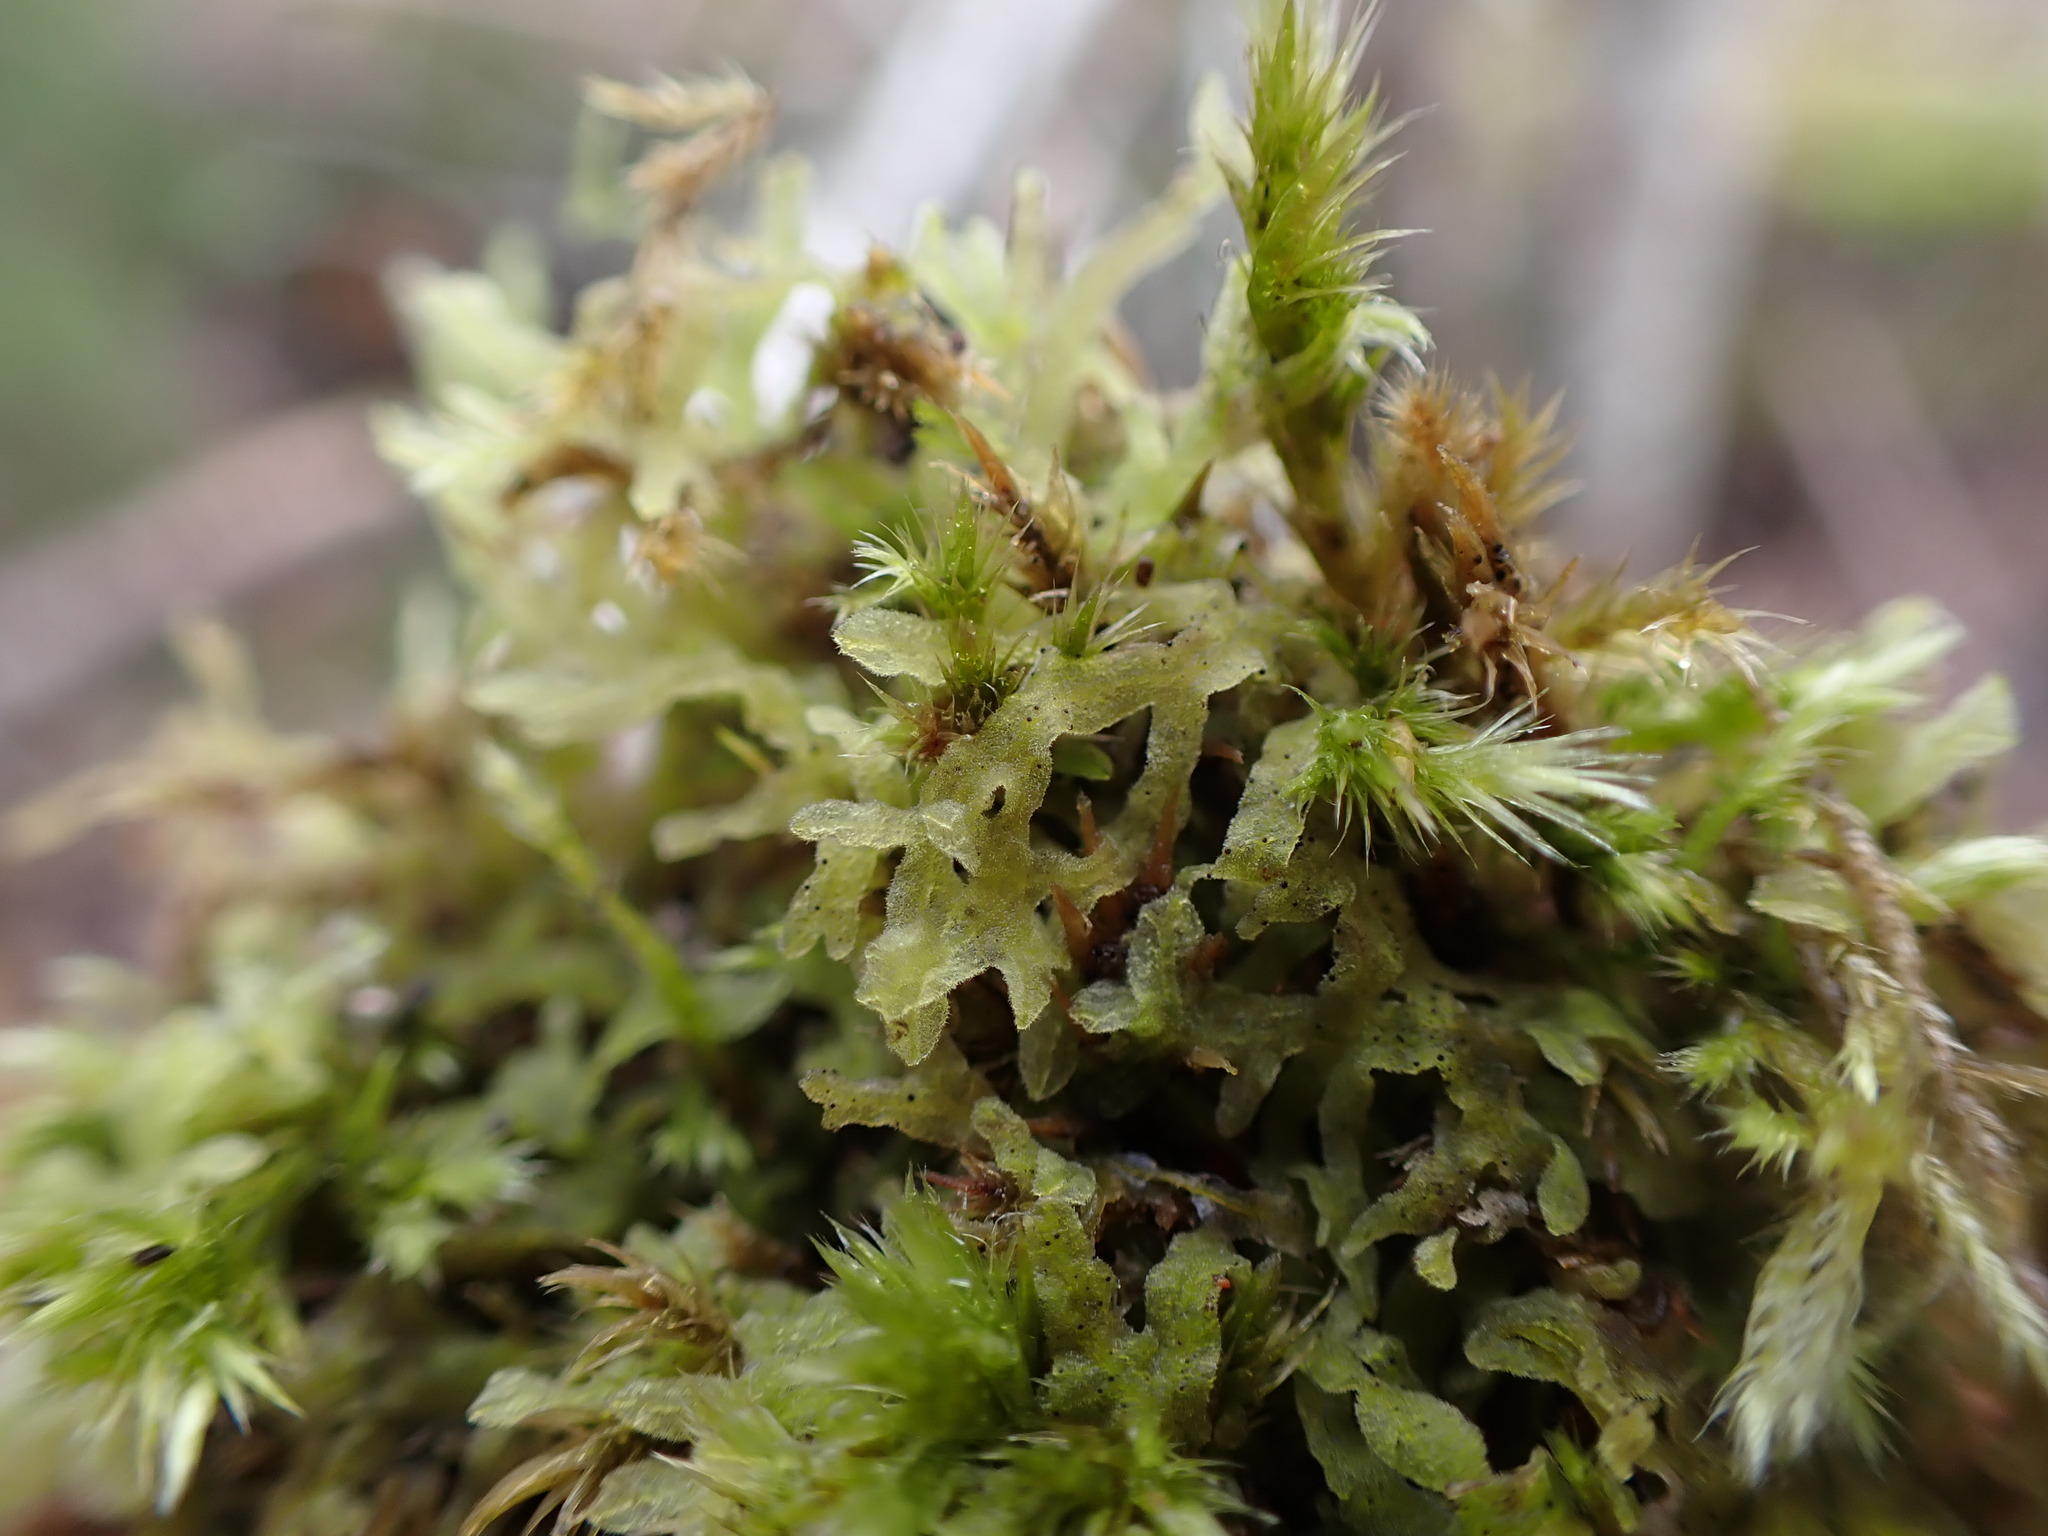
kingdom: Plantae
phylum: Marchantiophyta
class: Jungermanniopsida
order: Metzgeriales
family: Metzgeriaceae
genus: Metzgeria
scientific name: Metzgeria pubescens
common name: Downy veilwort
